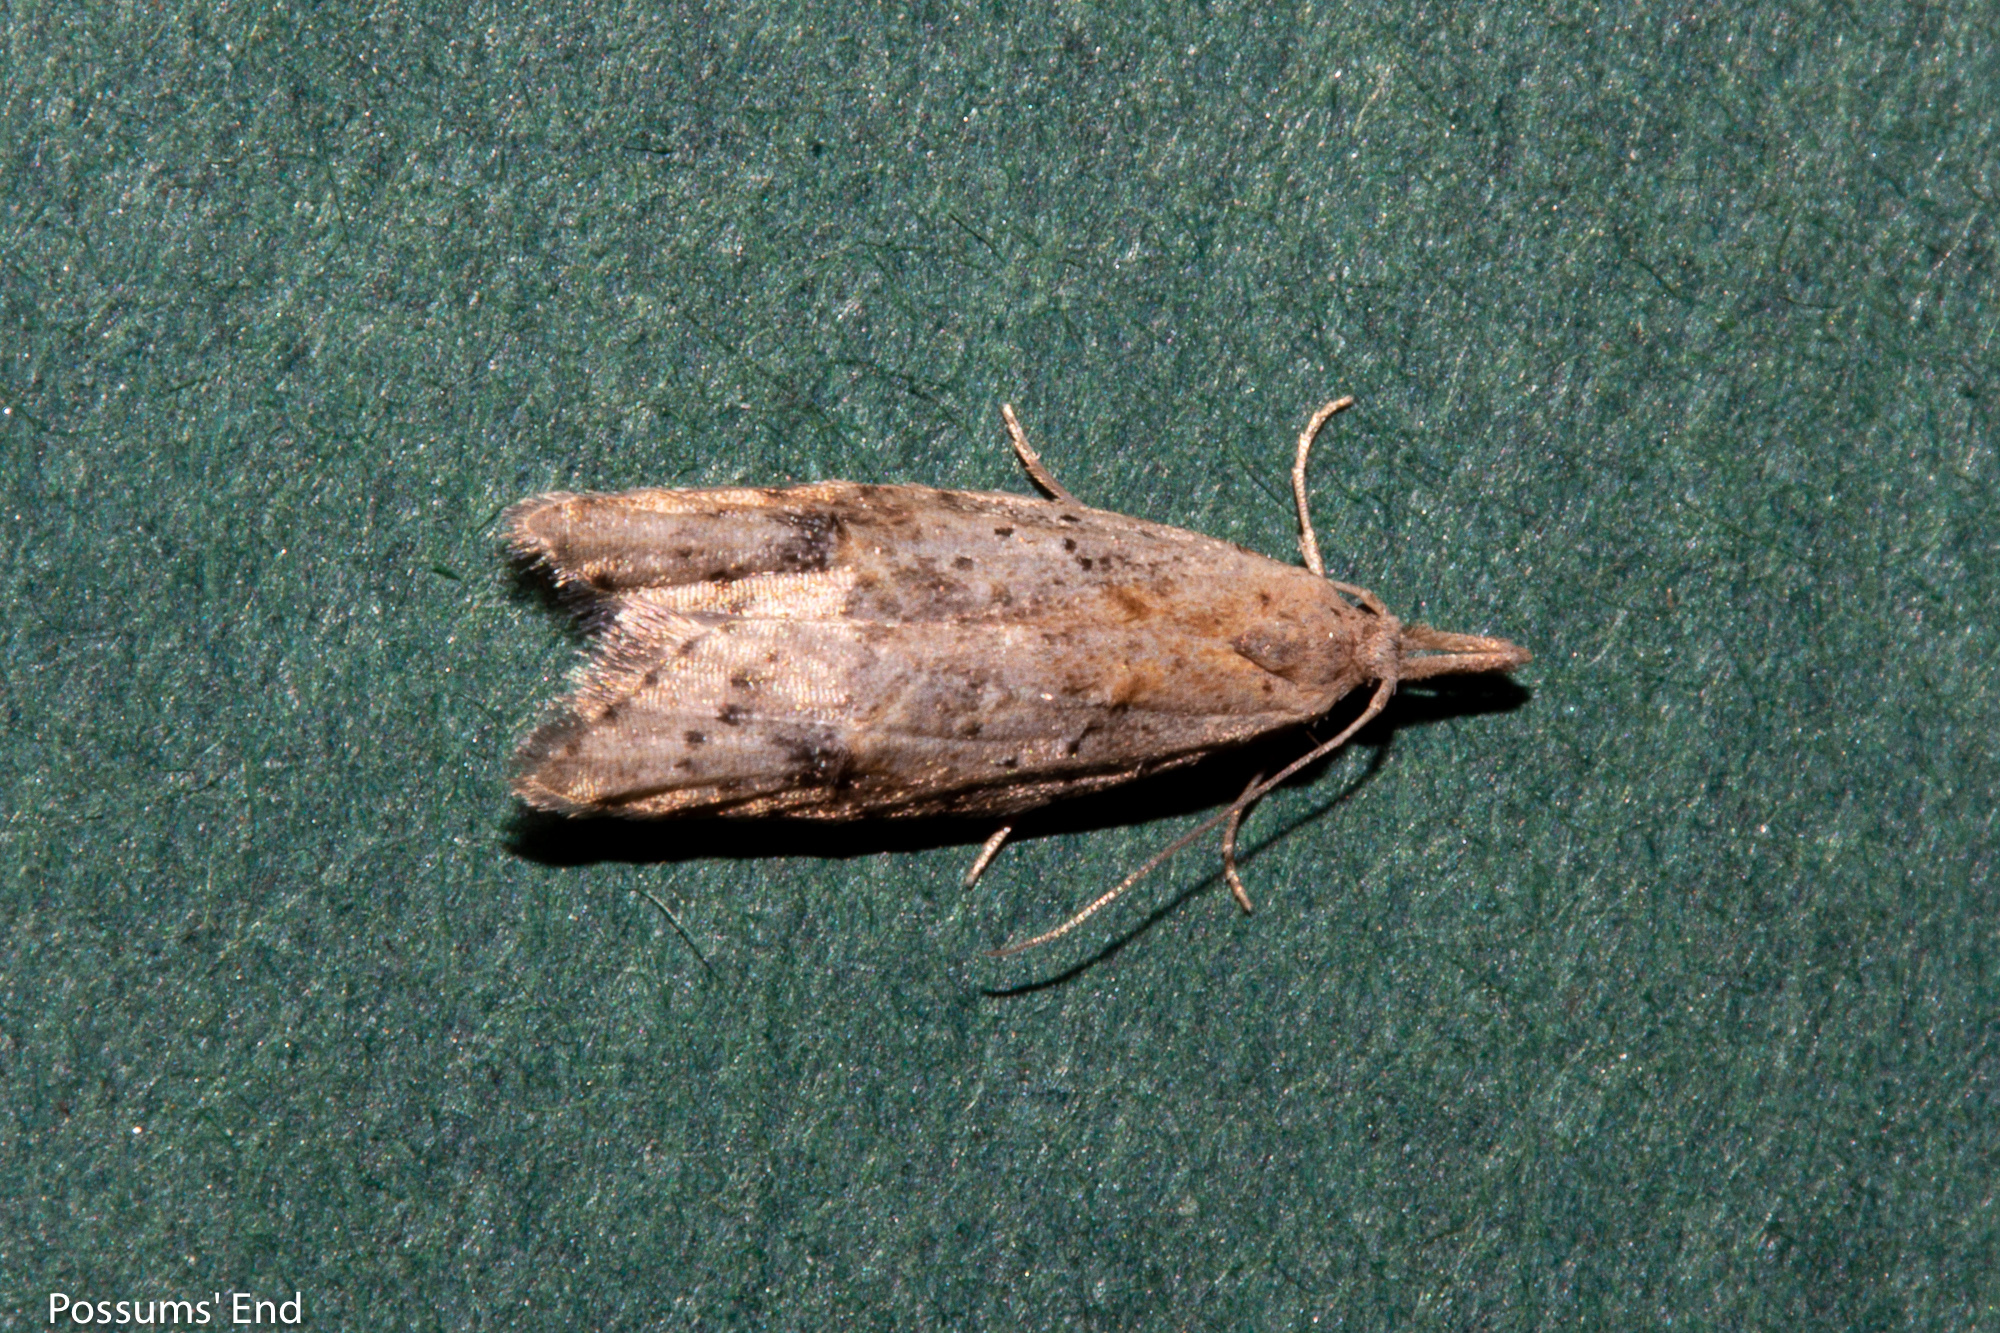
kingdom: Animalia
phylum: Arthropoda
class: Insecta
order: Lepidoptera
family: Carposinidae
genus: Carposina
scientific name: Carposina rubophaga
